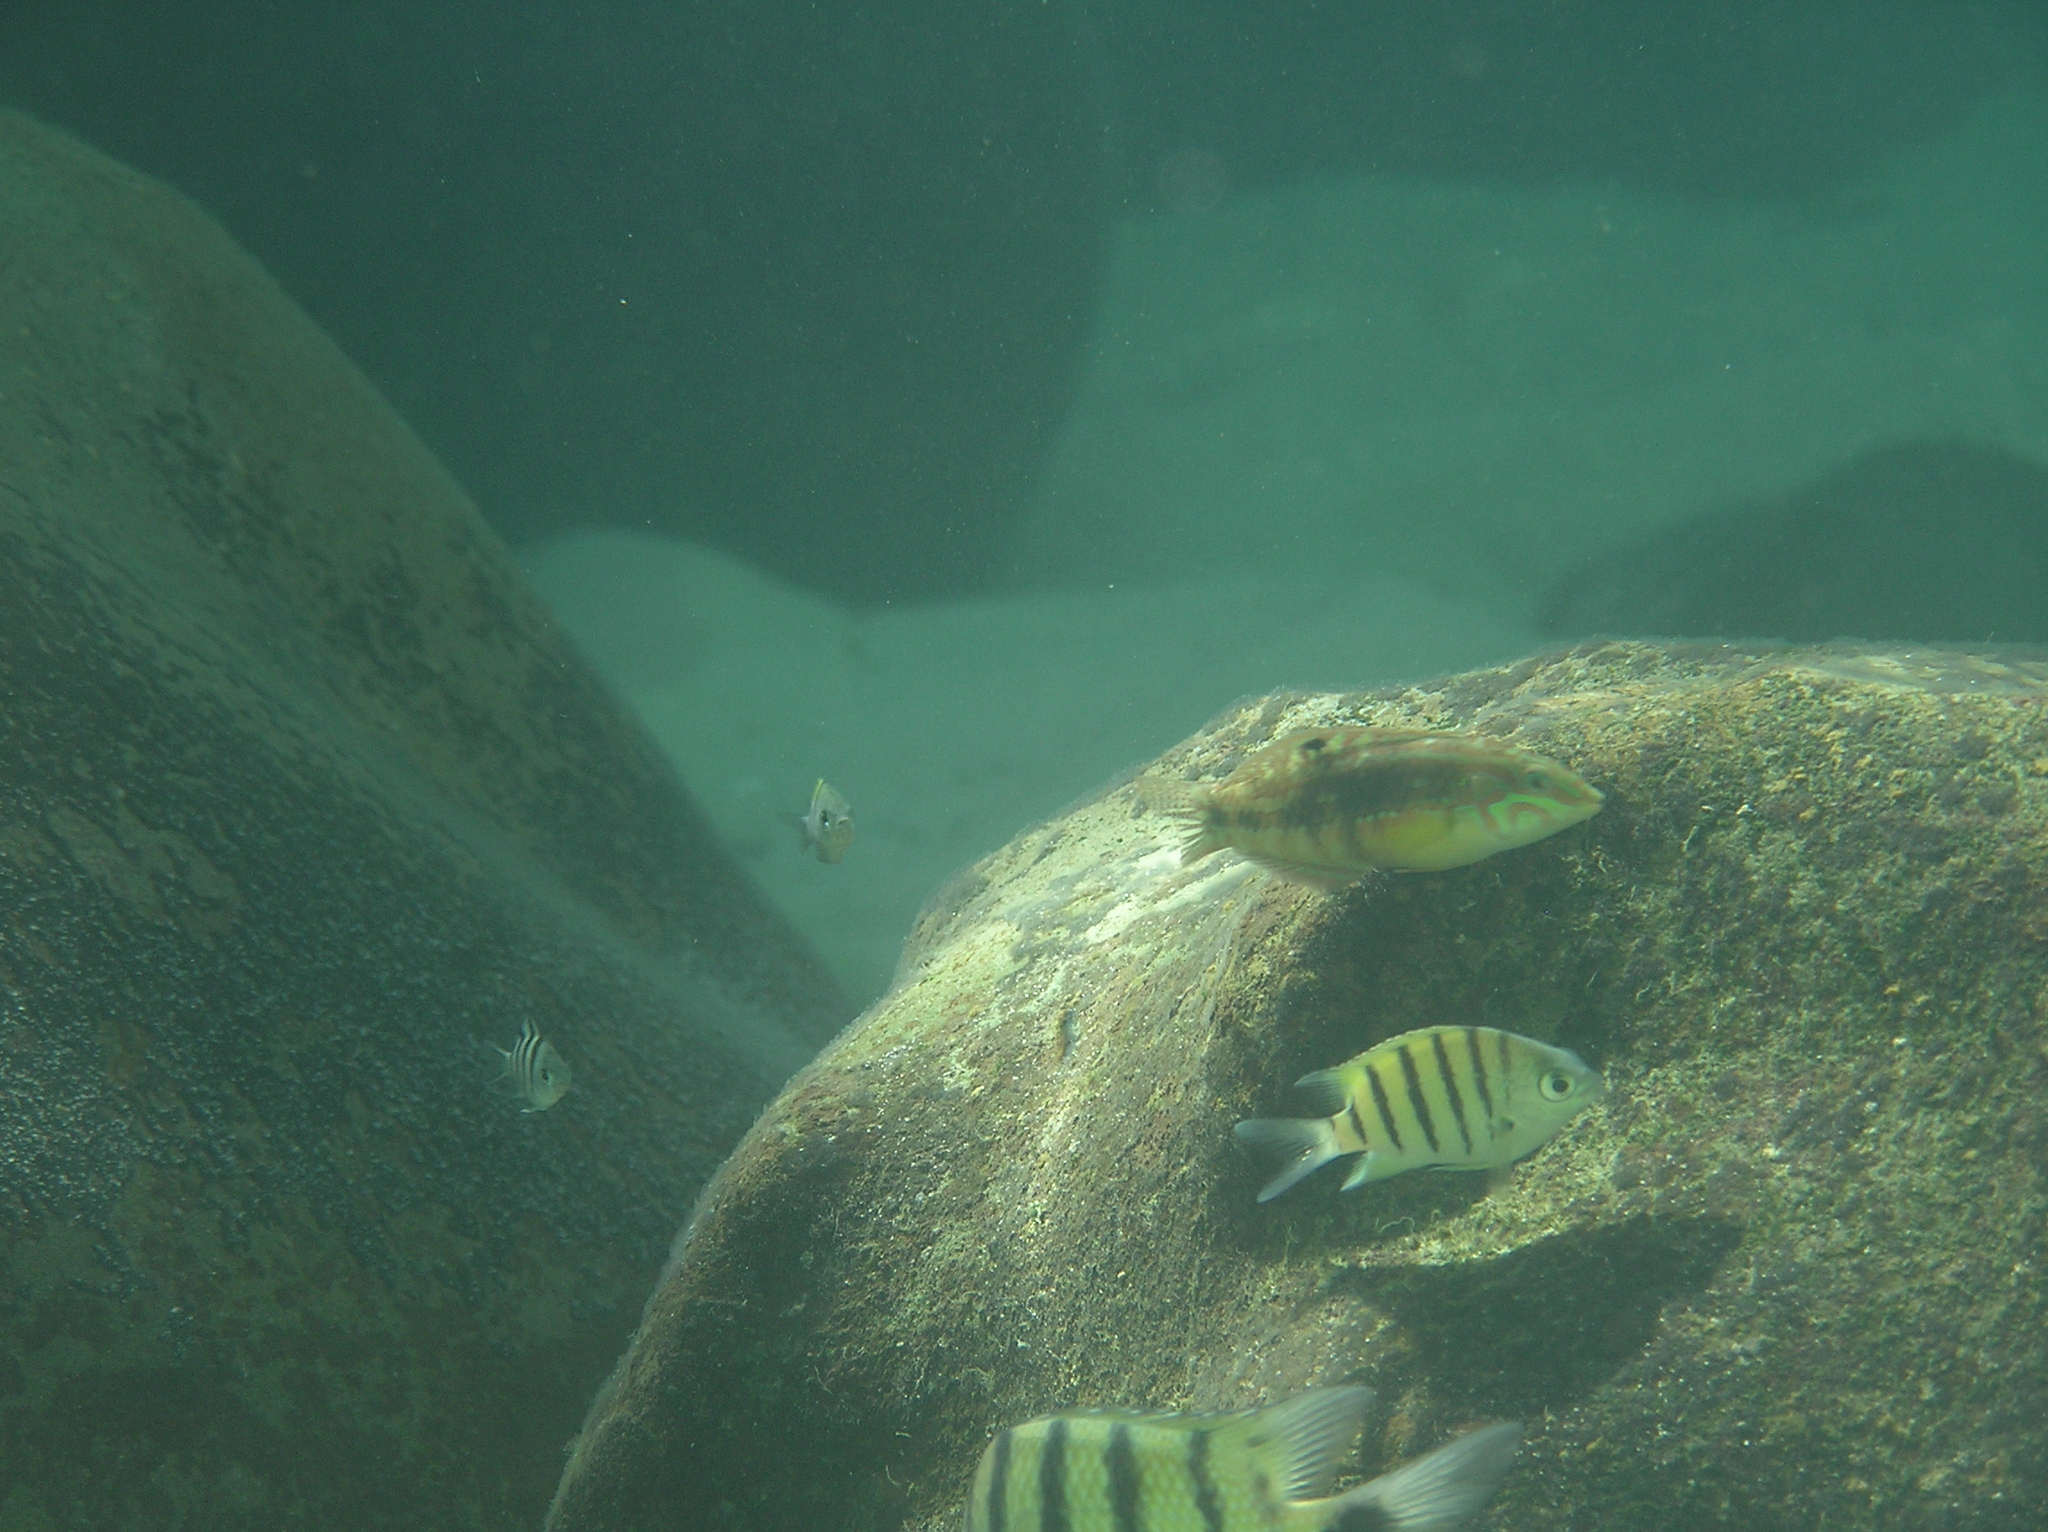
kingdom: Animalia
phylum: Chordata
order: Perciformes
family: Pomacentridae
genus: Abudefduf
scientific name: Abudefduf bengalensis
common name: Bengal sergeant
